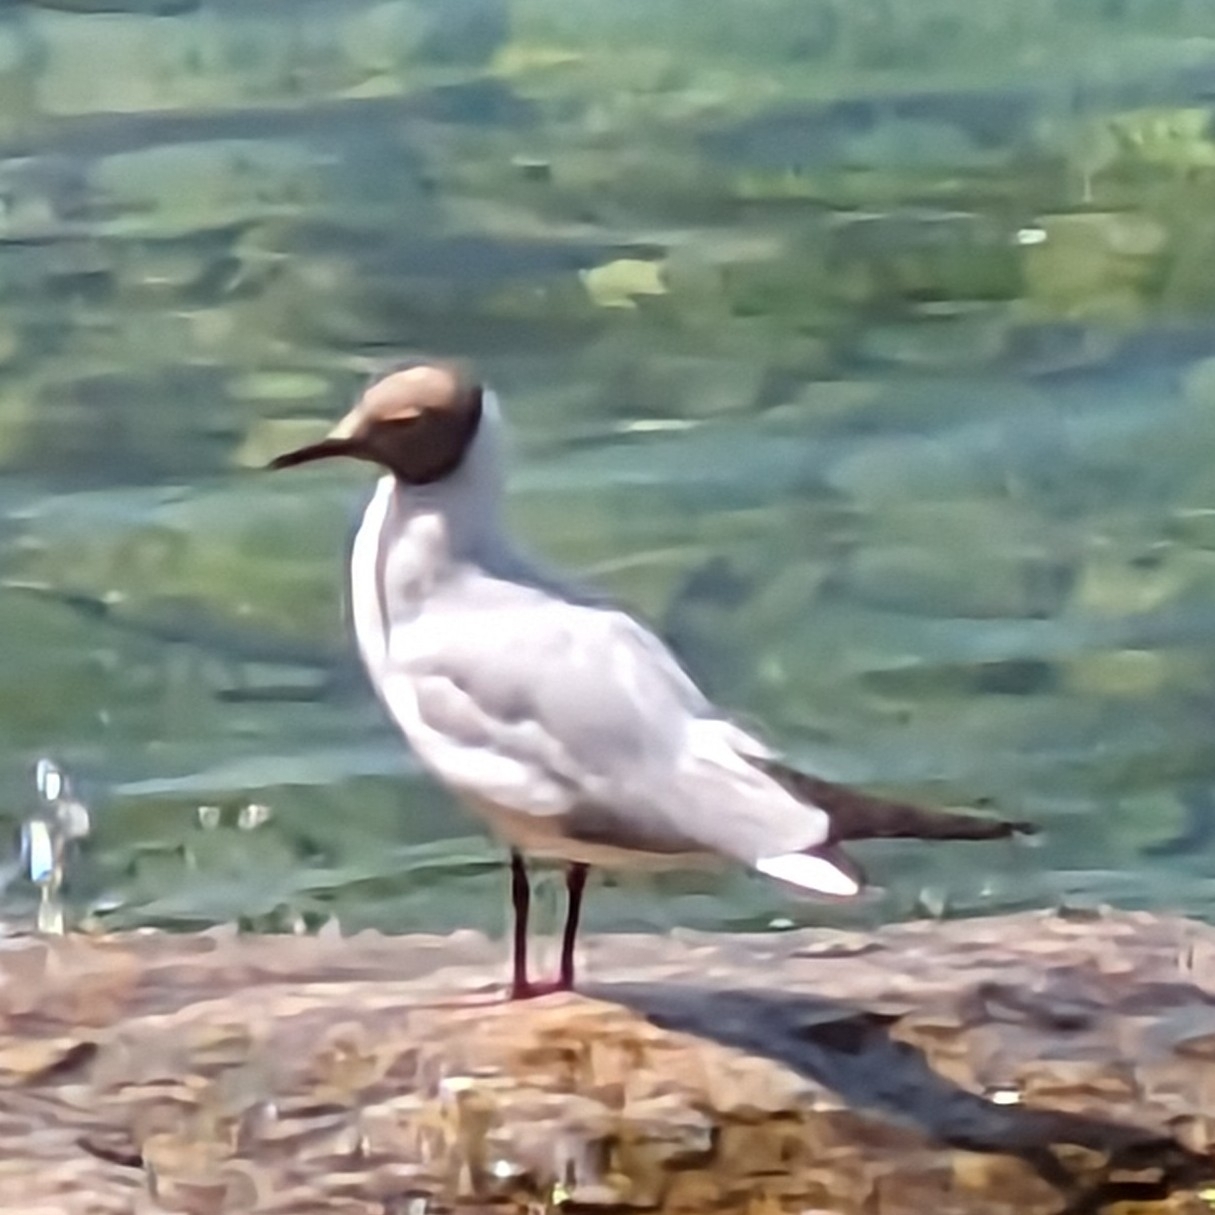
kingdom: Animalia
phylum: Chordata
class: Aves
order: Charadriiformes
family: Laridae
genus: Chroicocephalus
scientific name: Chroicocephalus ridibundus
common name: Black-headed gull
